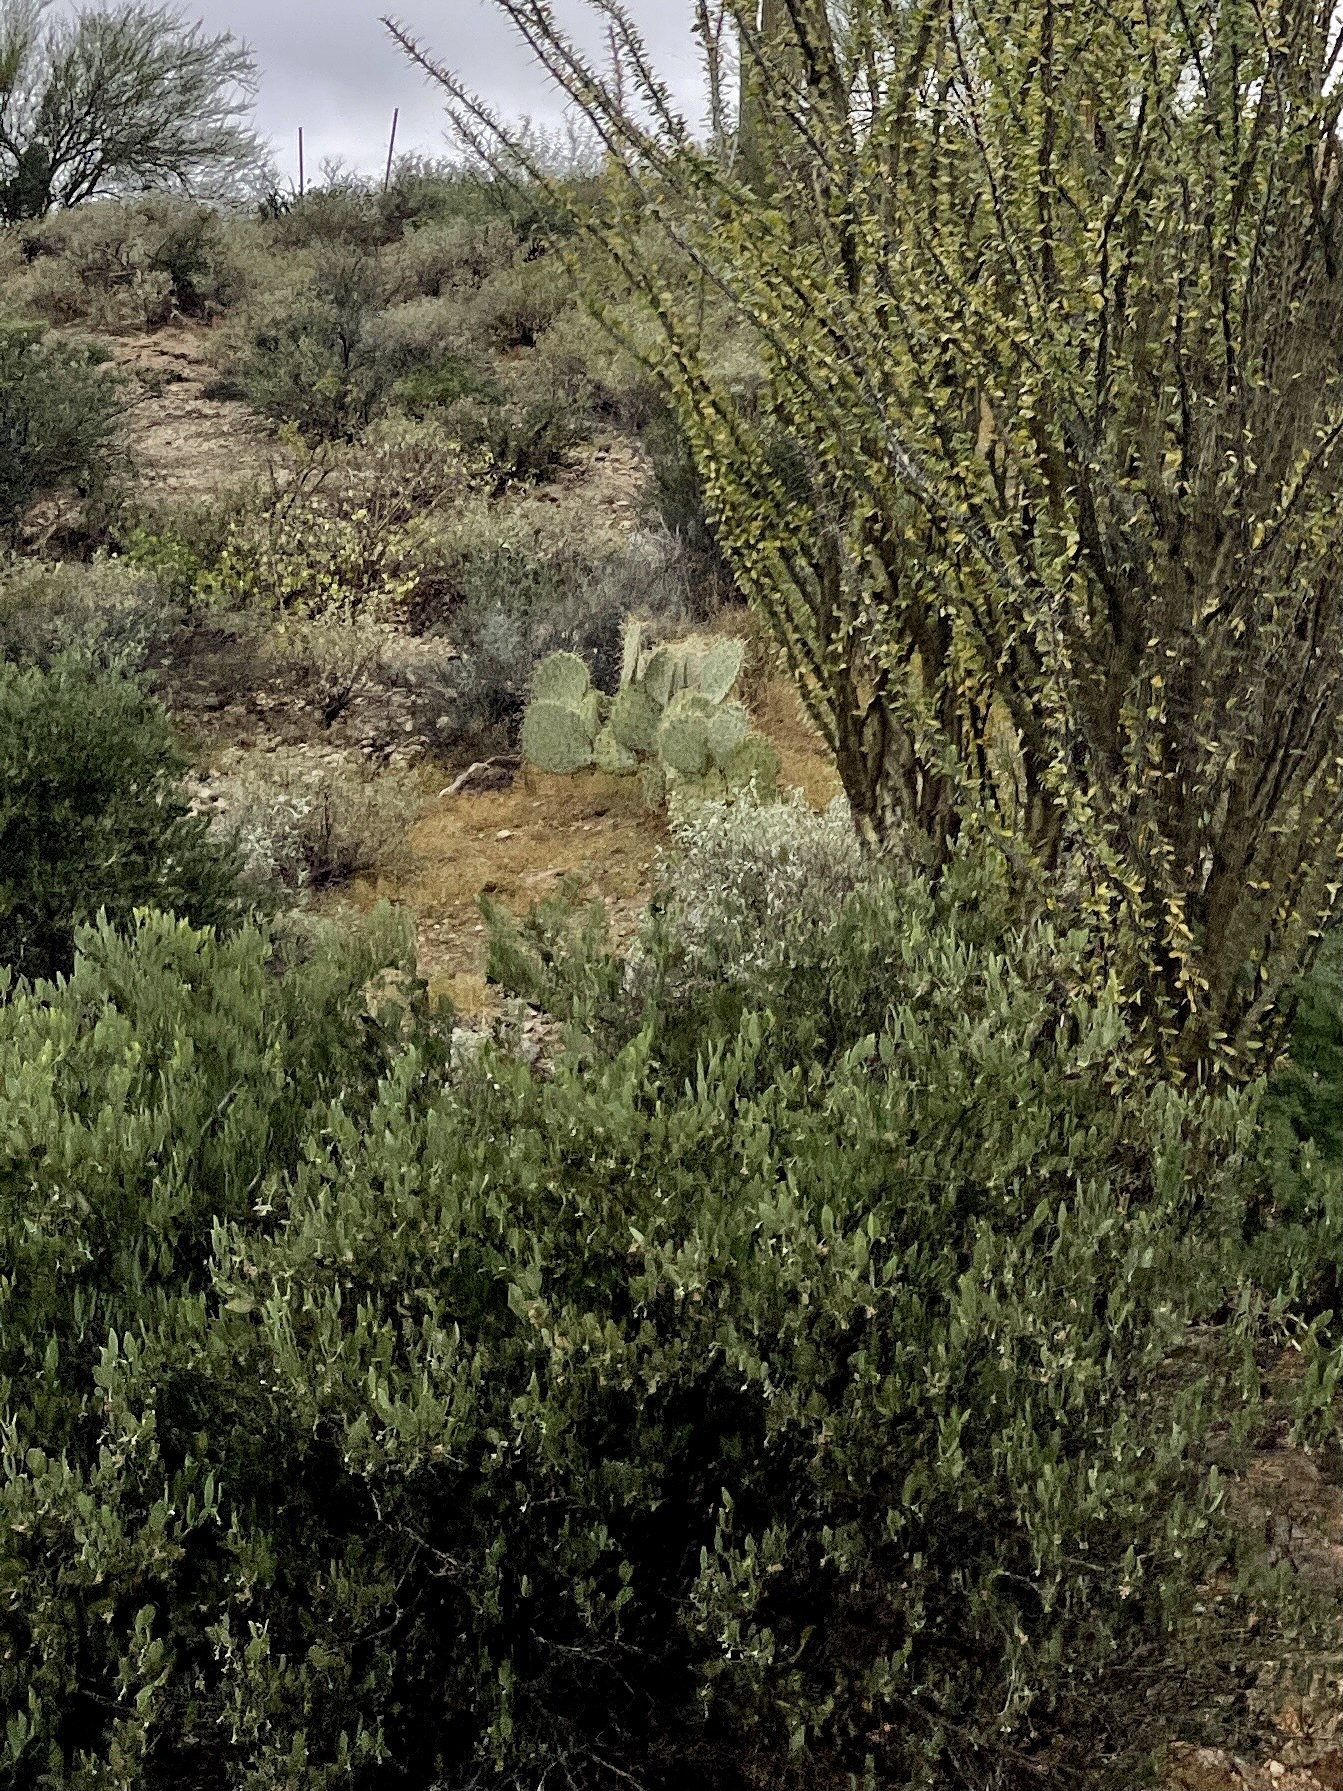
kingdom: Plantae
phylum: Tracheophyta
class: Magnoliopsida
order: Caryophyllales
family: Simmondsiaceae
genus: Simmondsia
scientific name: Simmondsia chinensis
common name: Jojoba
